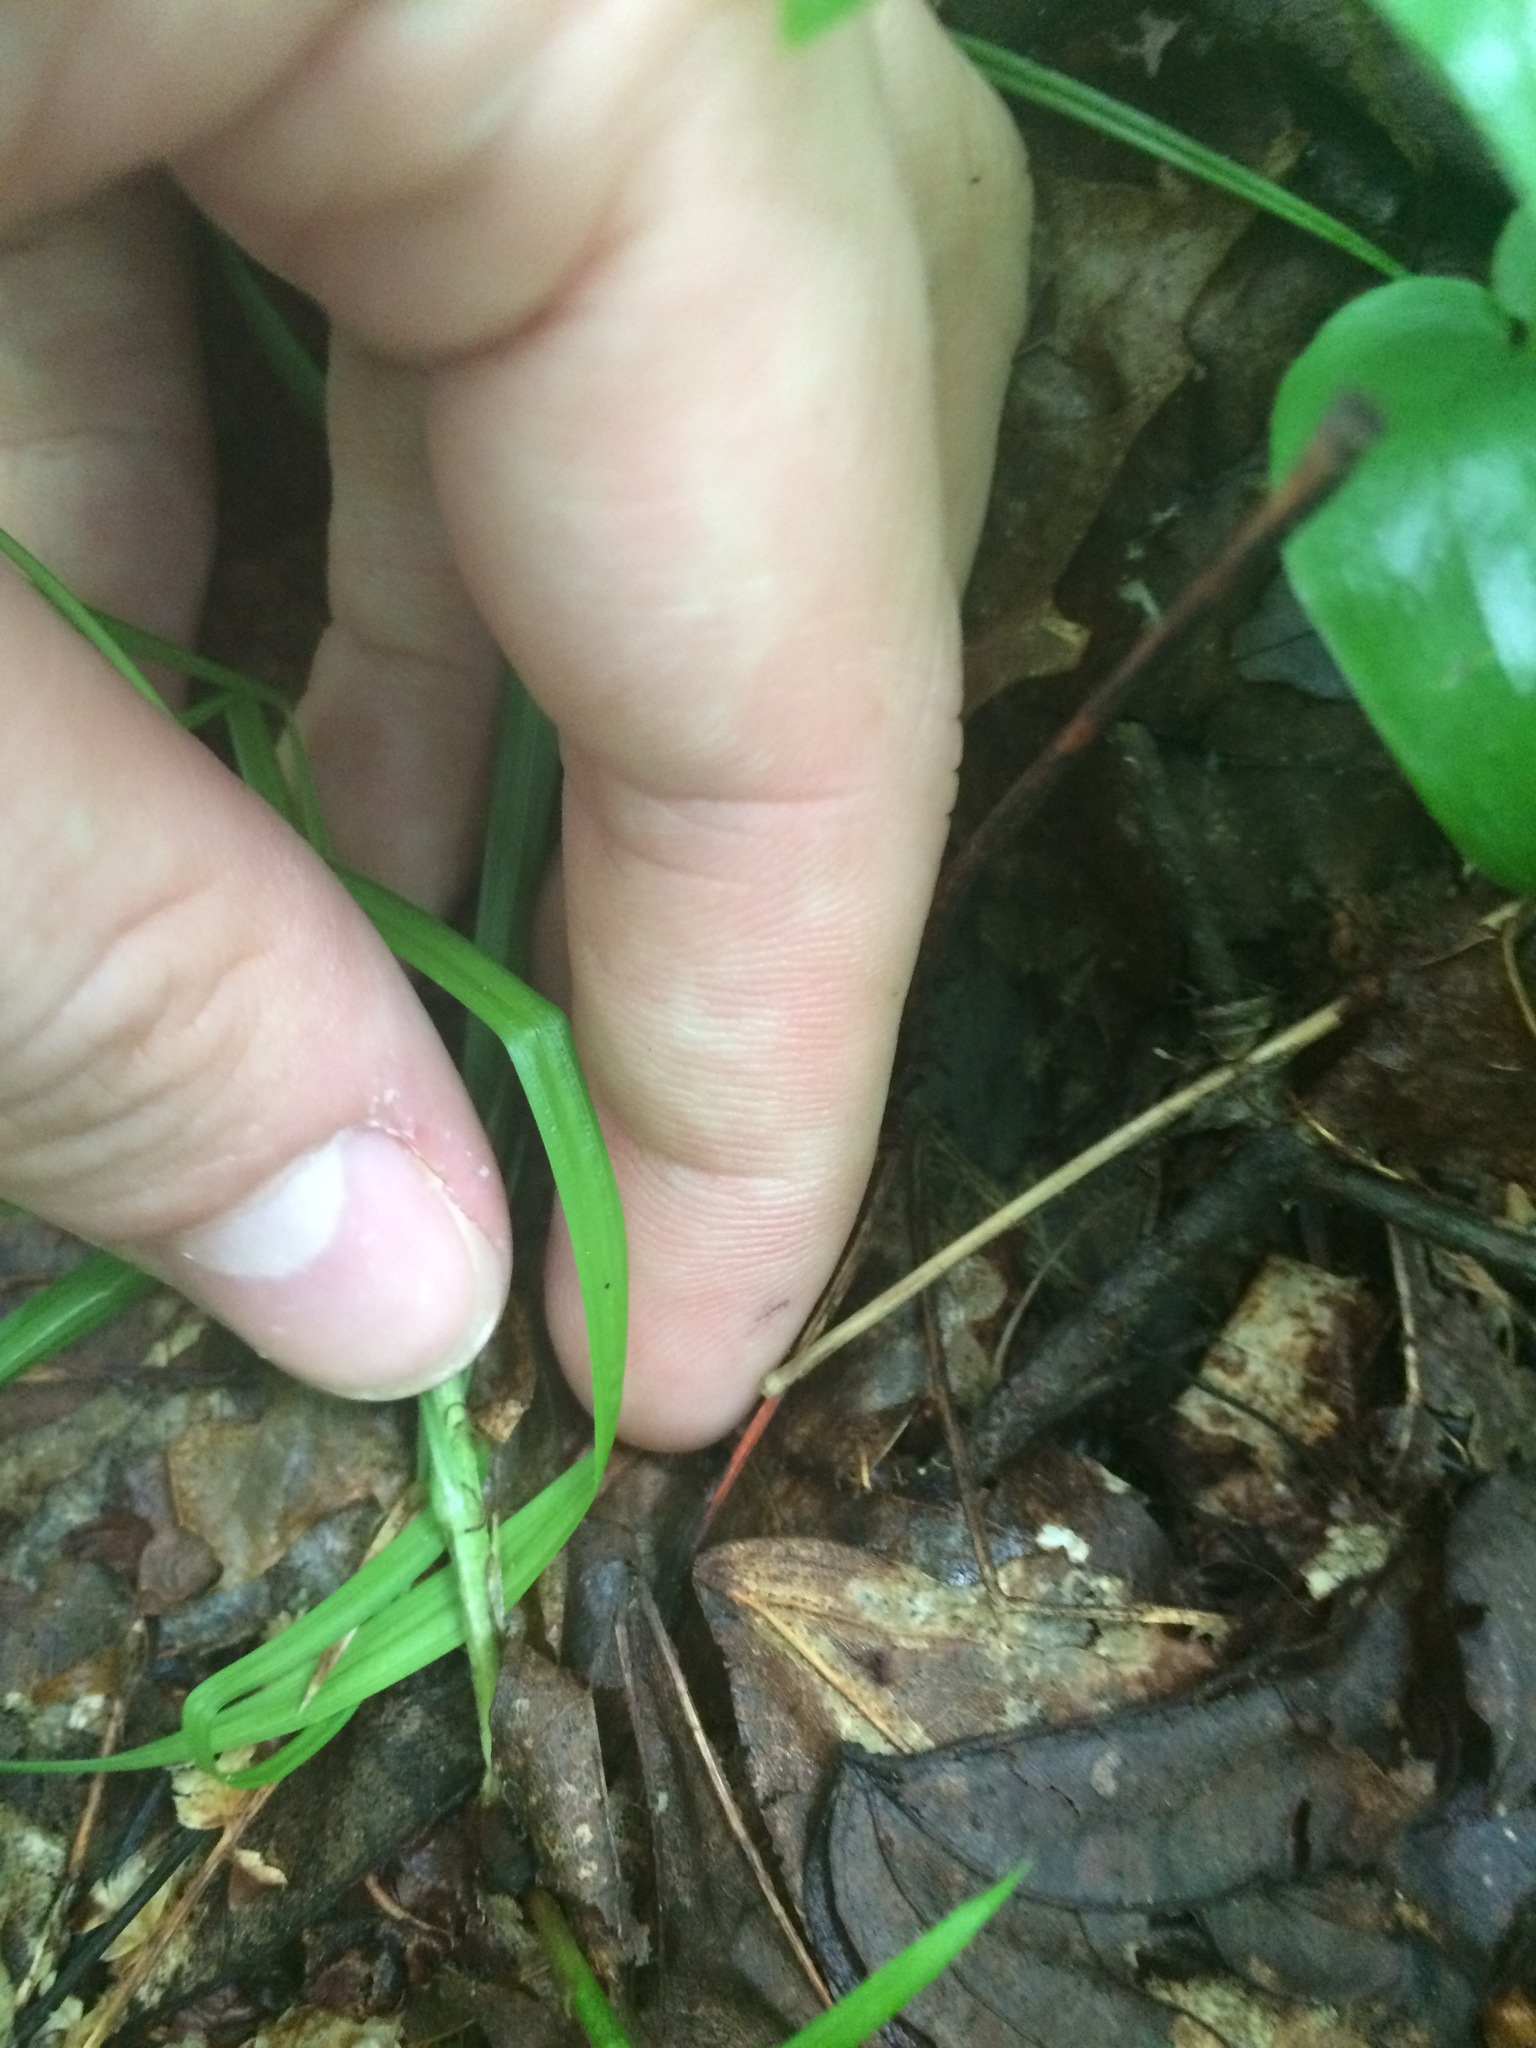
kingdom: Plantae
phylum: Tracheophyta
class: Liliopsida
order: Poales
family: Cyperaceae
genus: Carex
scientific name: Carex deweyana
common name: Dewey's sedge
